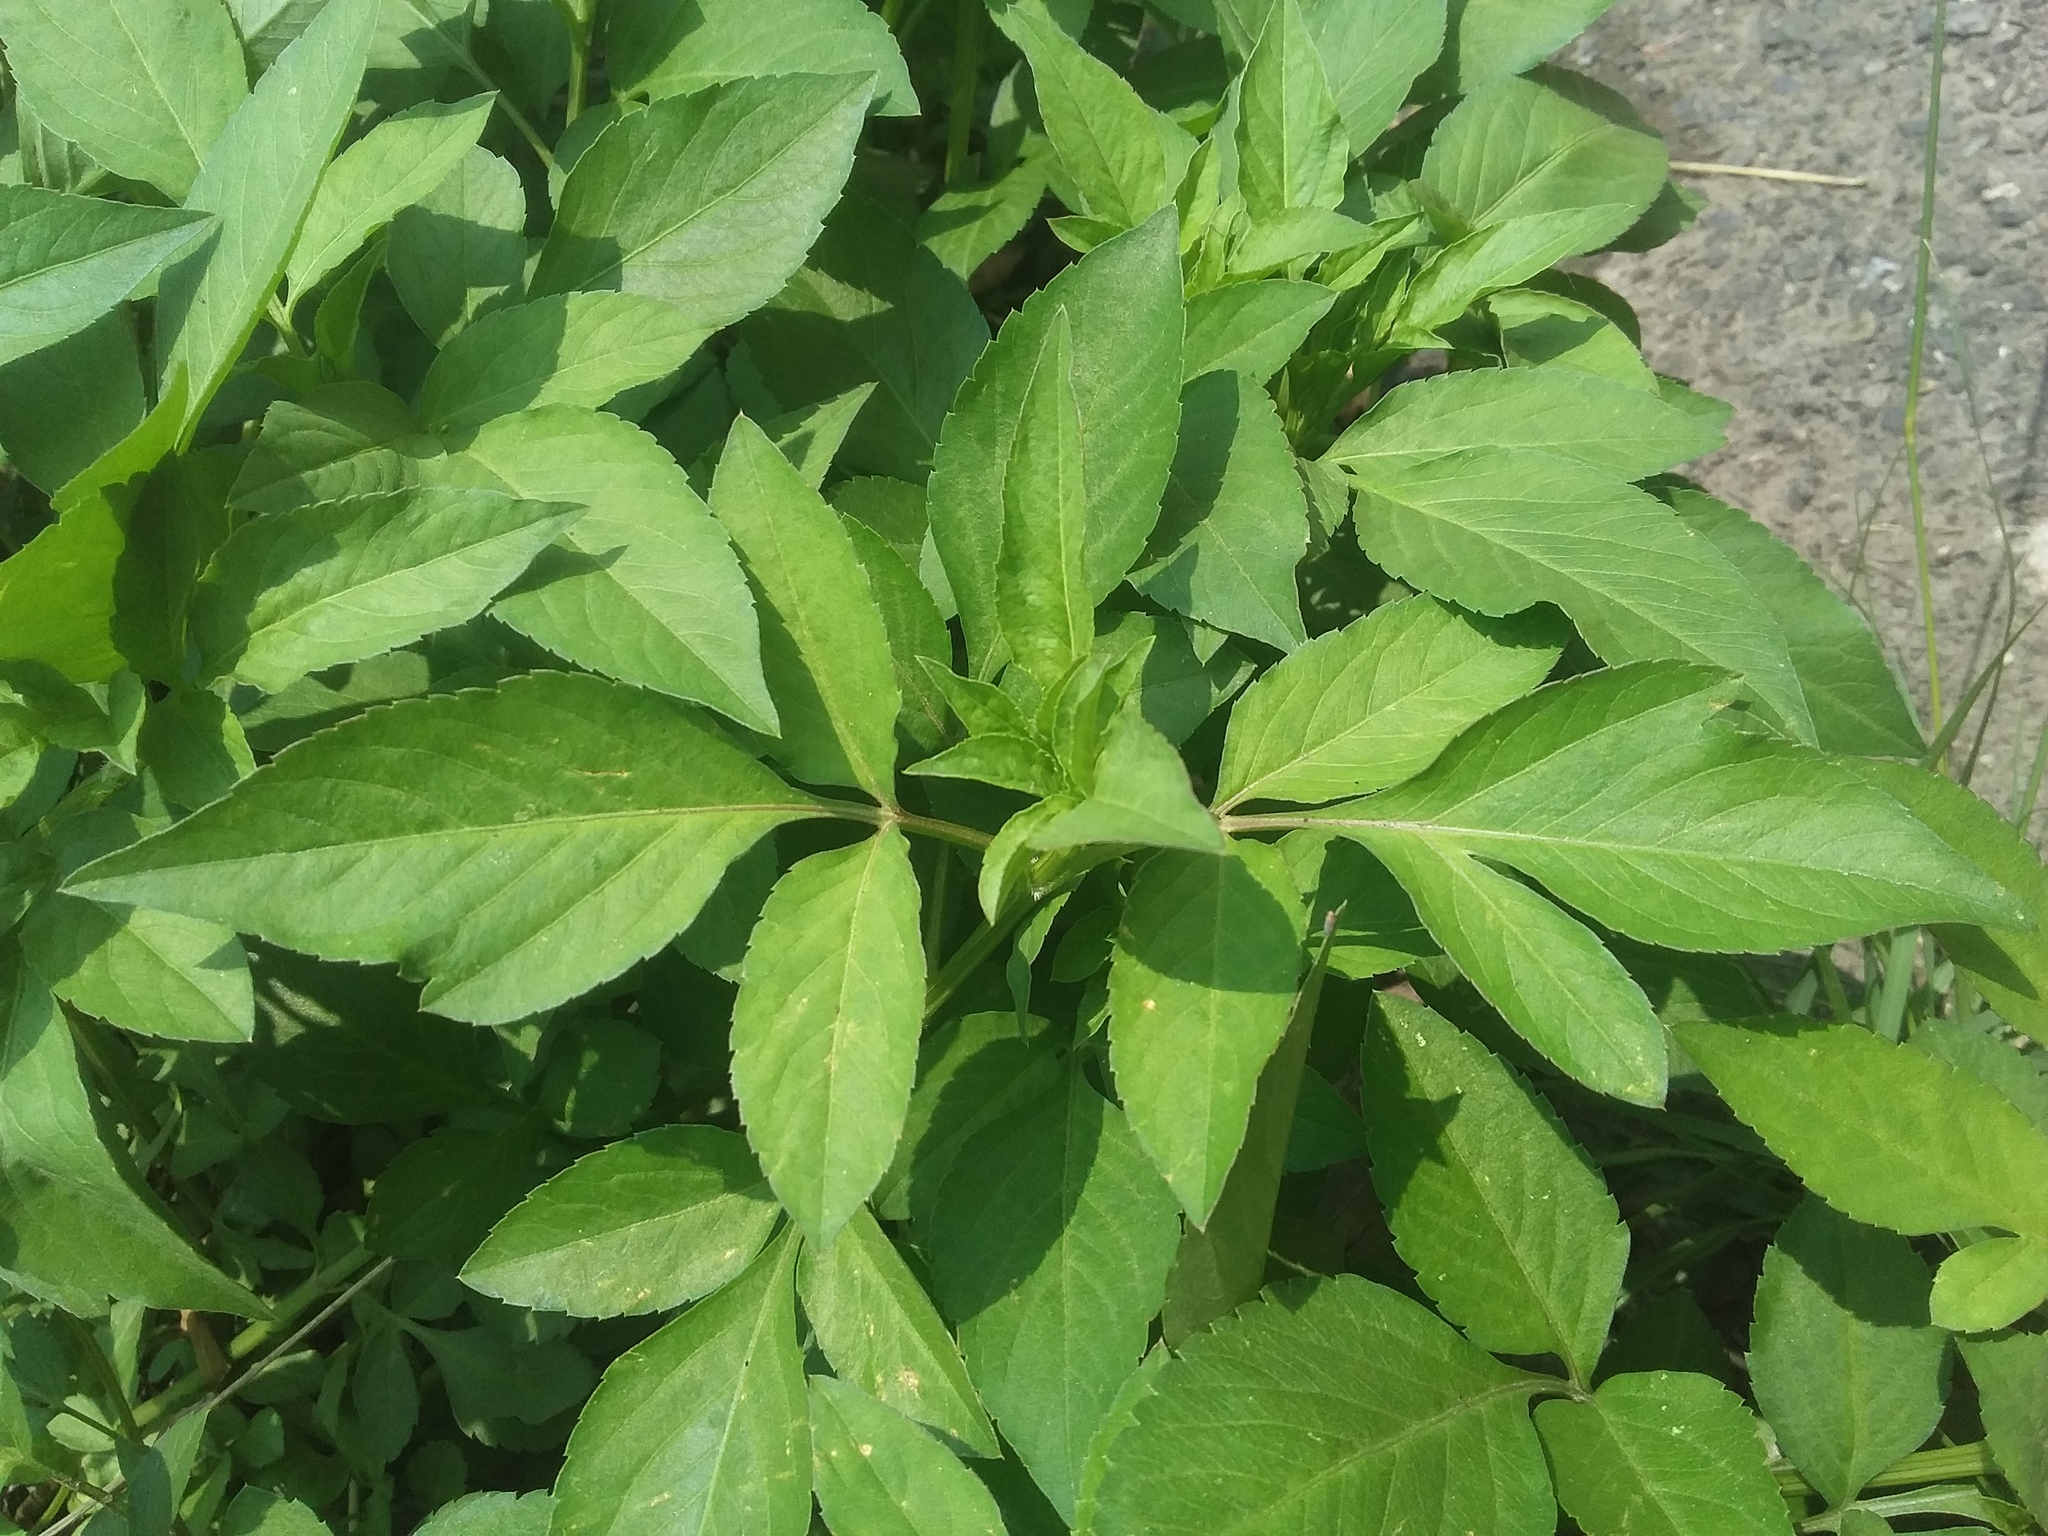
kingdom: Plantae
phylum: Tracheophyta
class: Magnoliopsida
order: Asterales
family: Asteraceae
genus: Bidens
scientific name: Bidens alba
